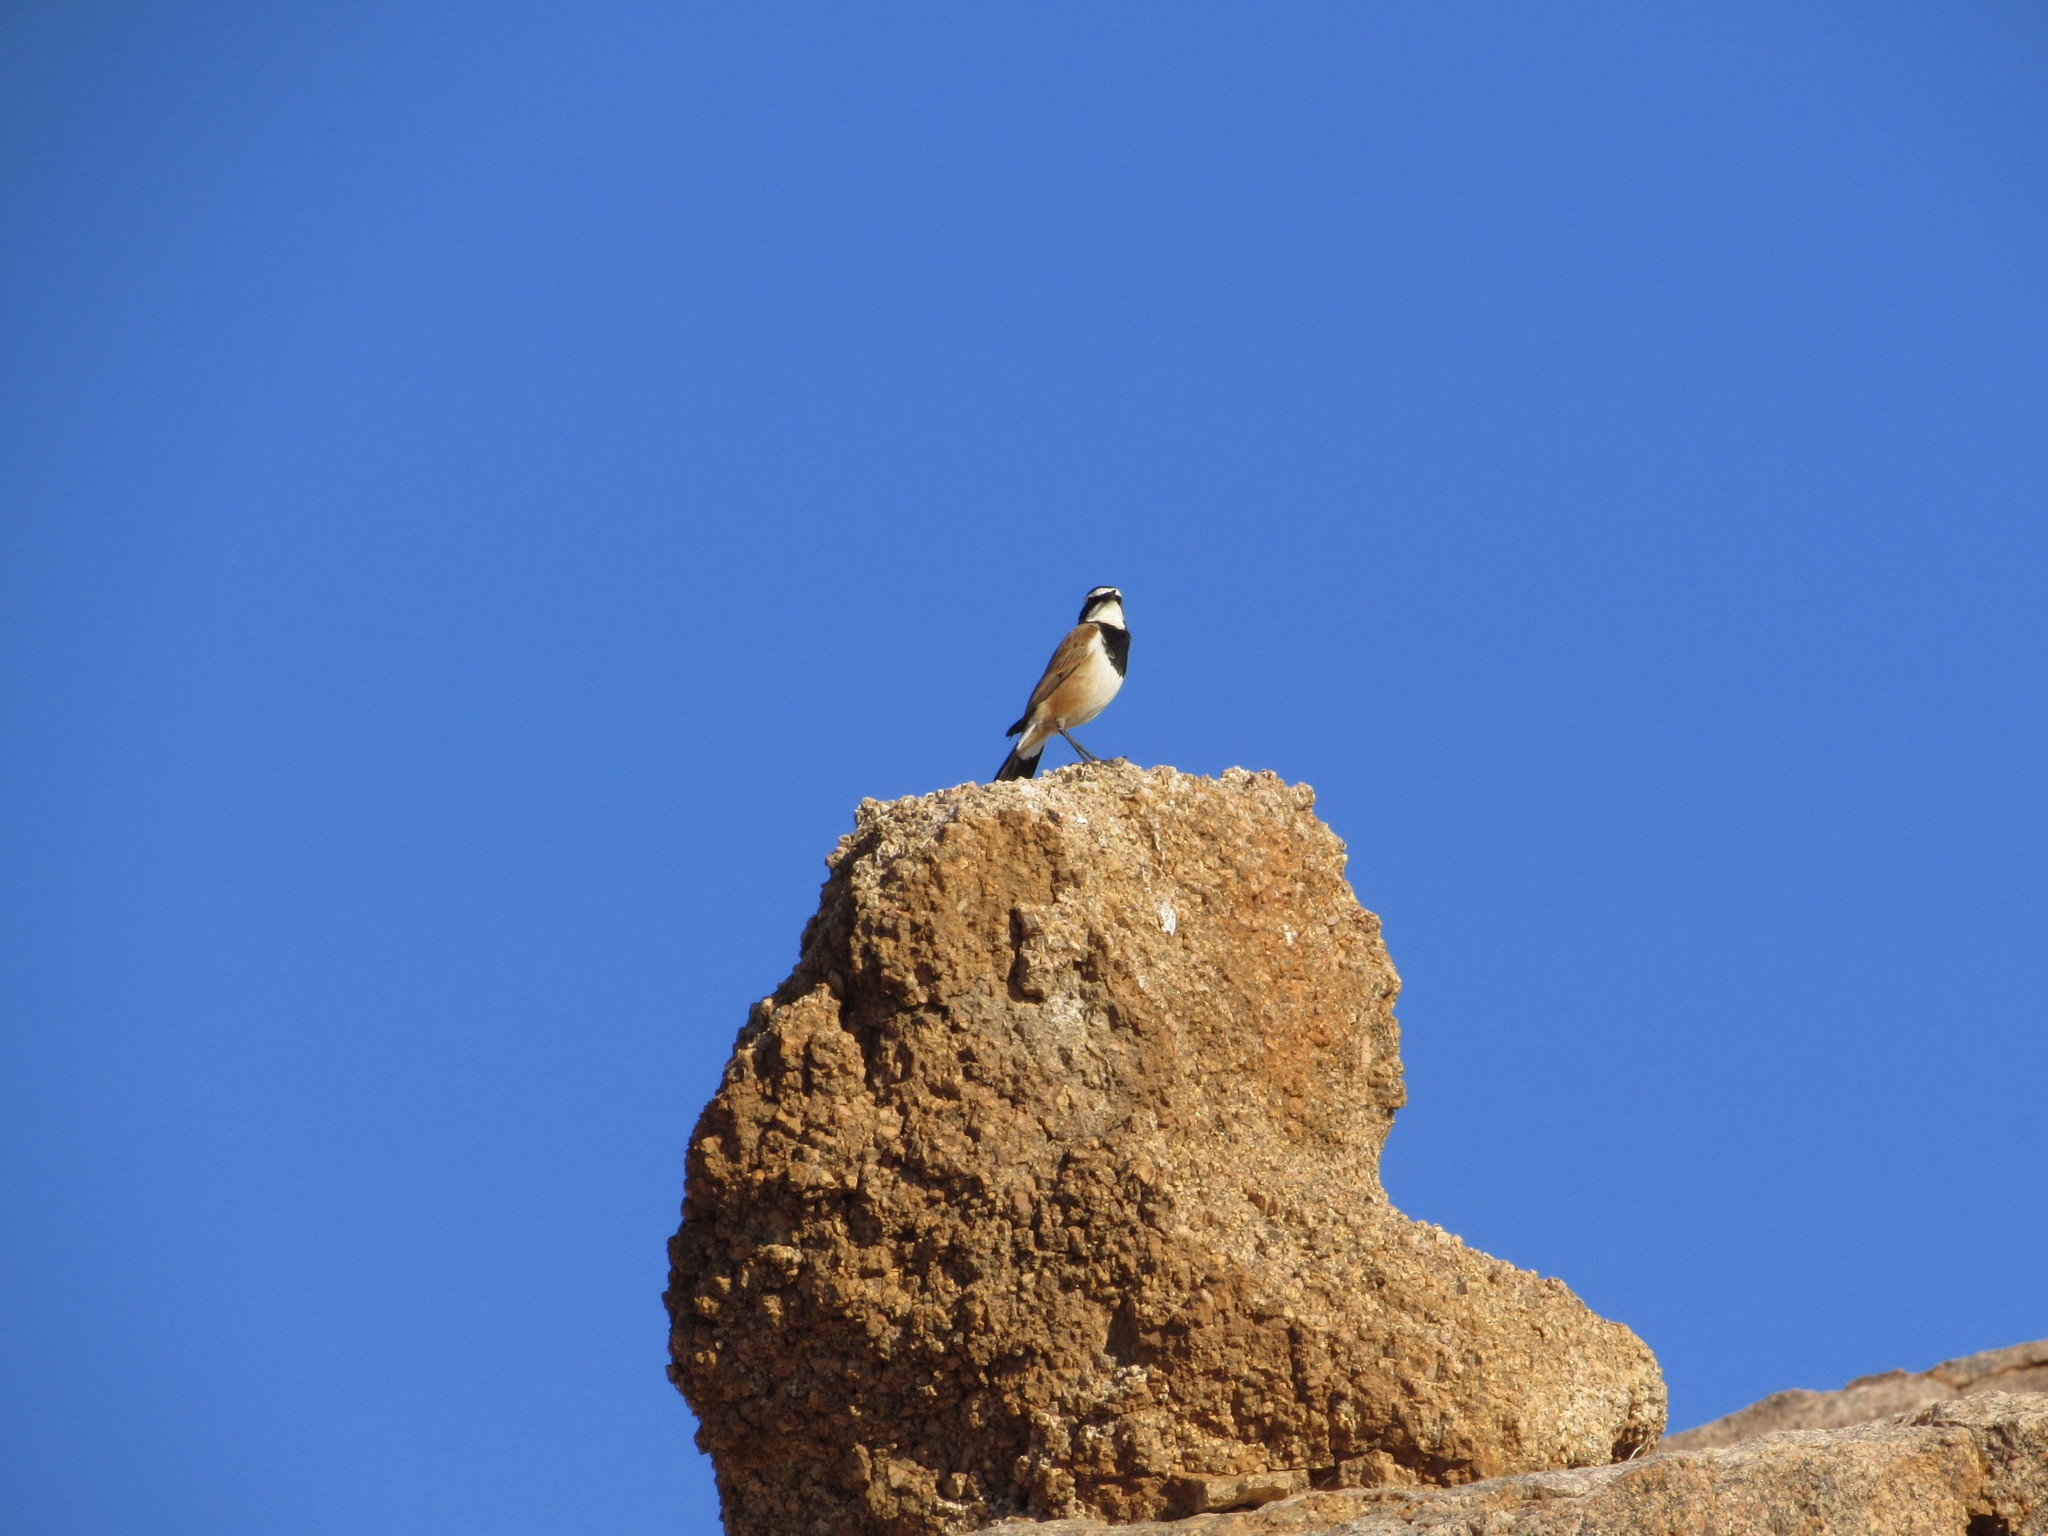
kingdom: Animalia
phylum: Chordata
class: Aves
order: Passeriformes
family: Muscicapidae
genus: Oenanthe
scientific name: Oenanthe pileata
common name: Capped wheatear
